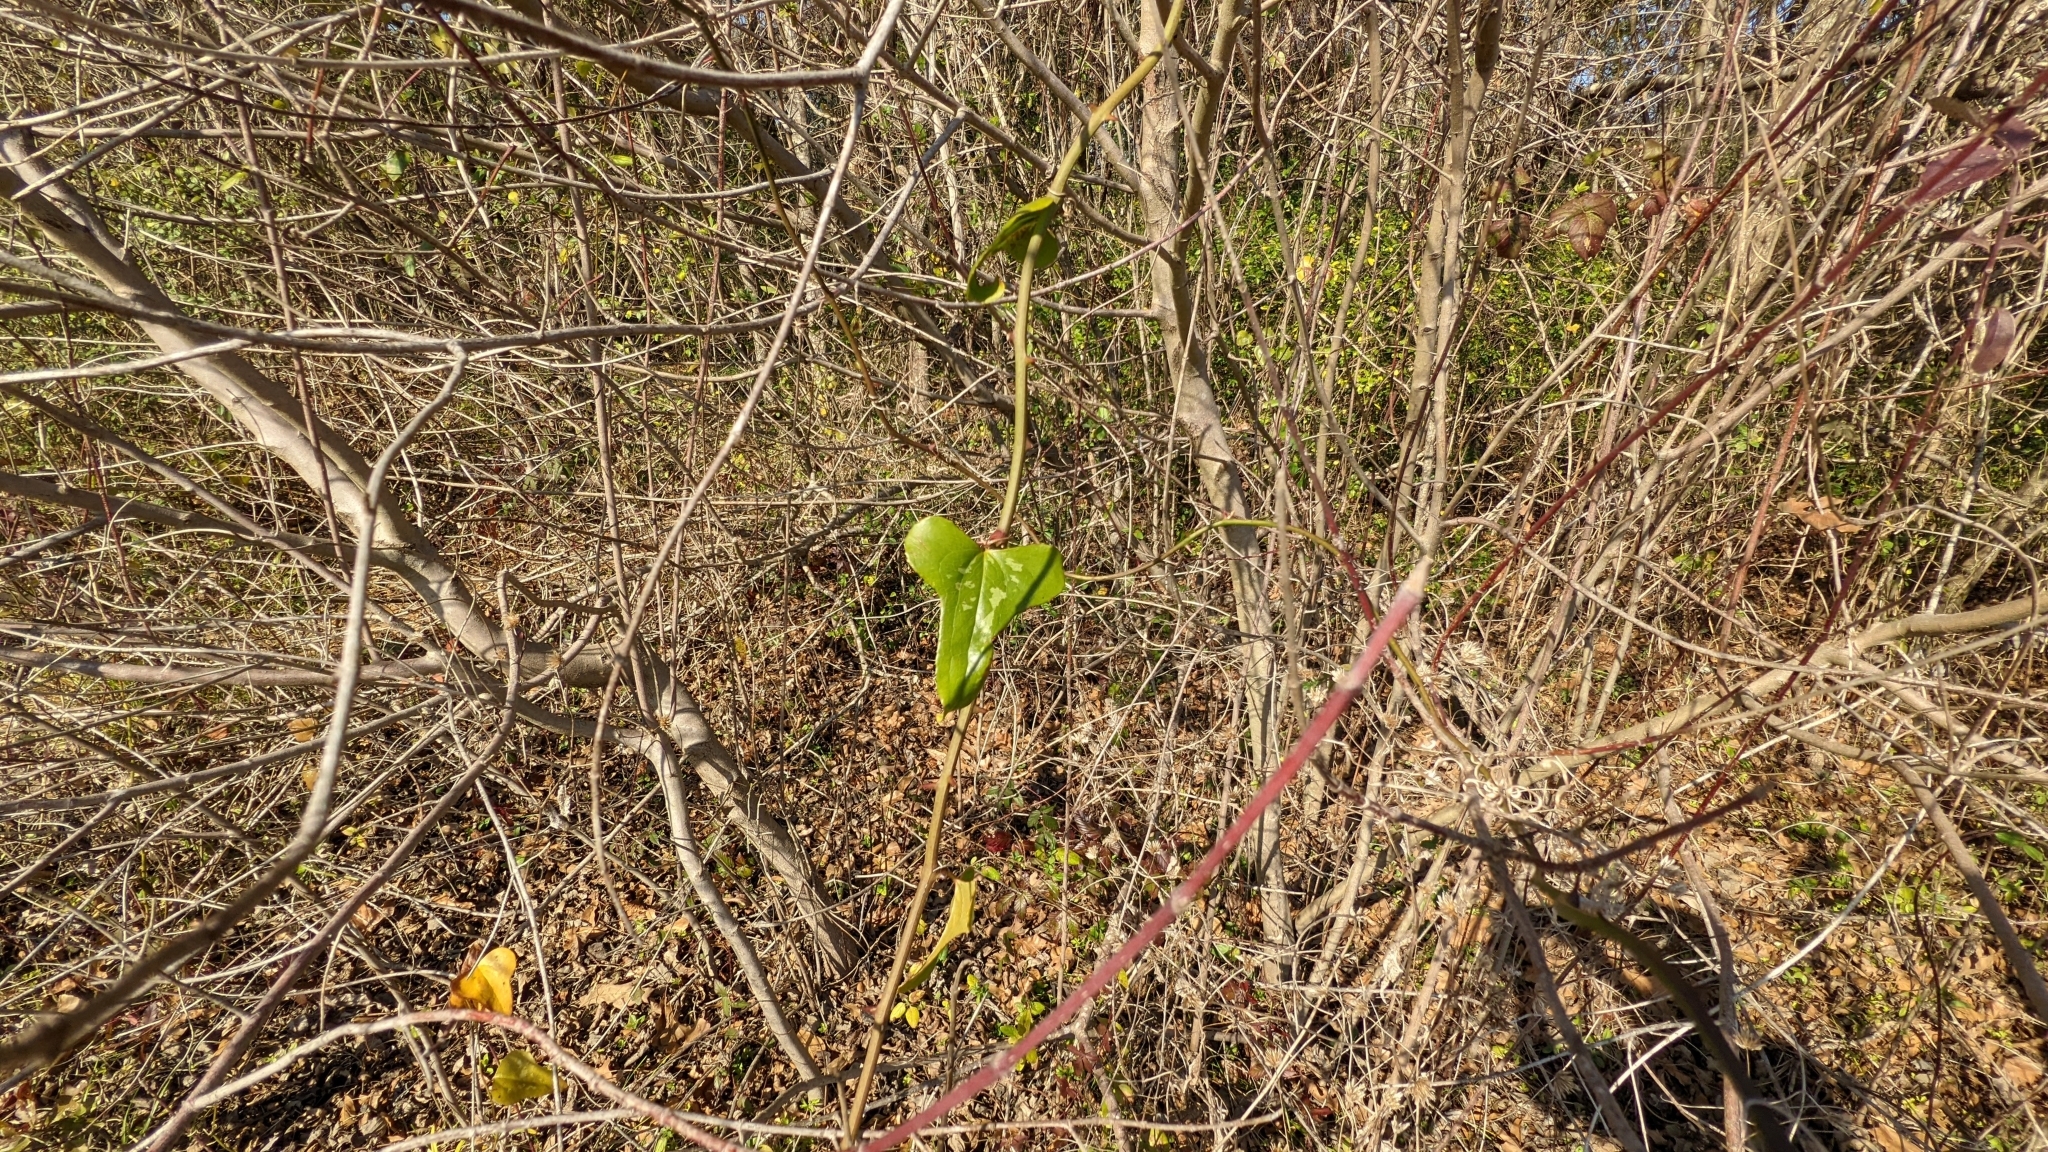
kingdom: Plantae
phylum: Tracheophyta
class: Liliopsida
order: Liliales
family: Smilacaceae
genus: Smilax
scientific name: Smilax bona-nox
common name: Catbrier
